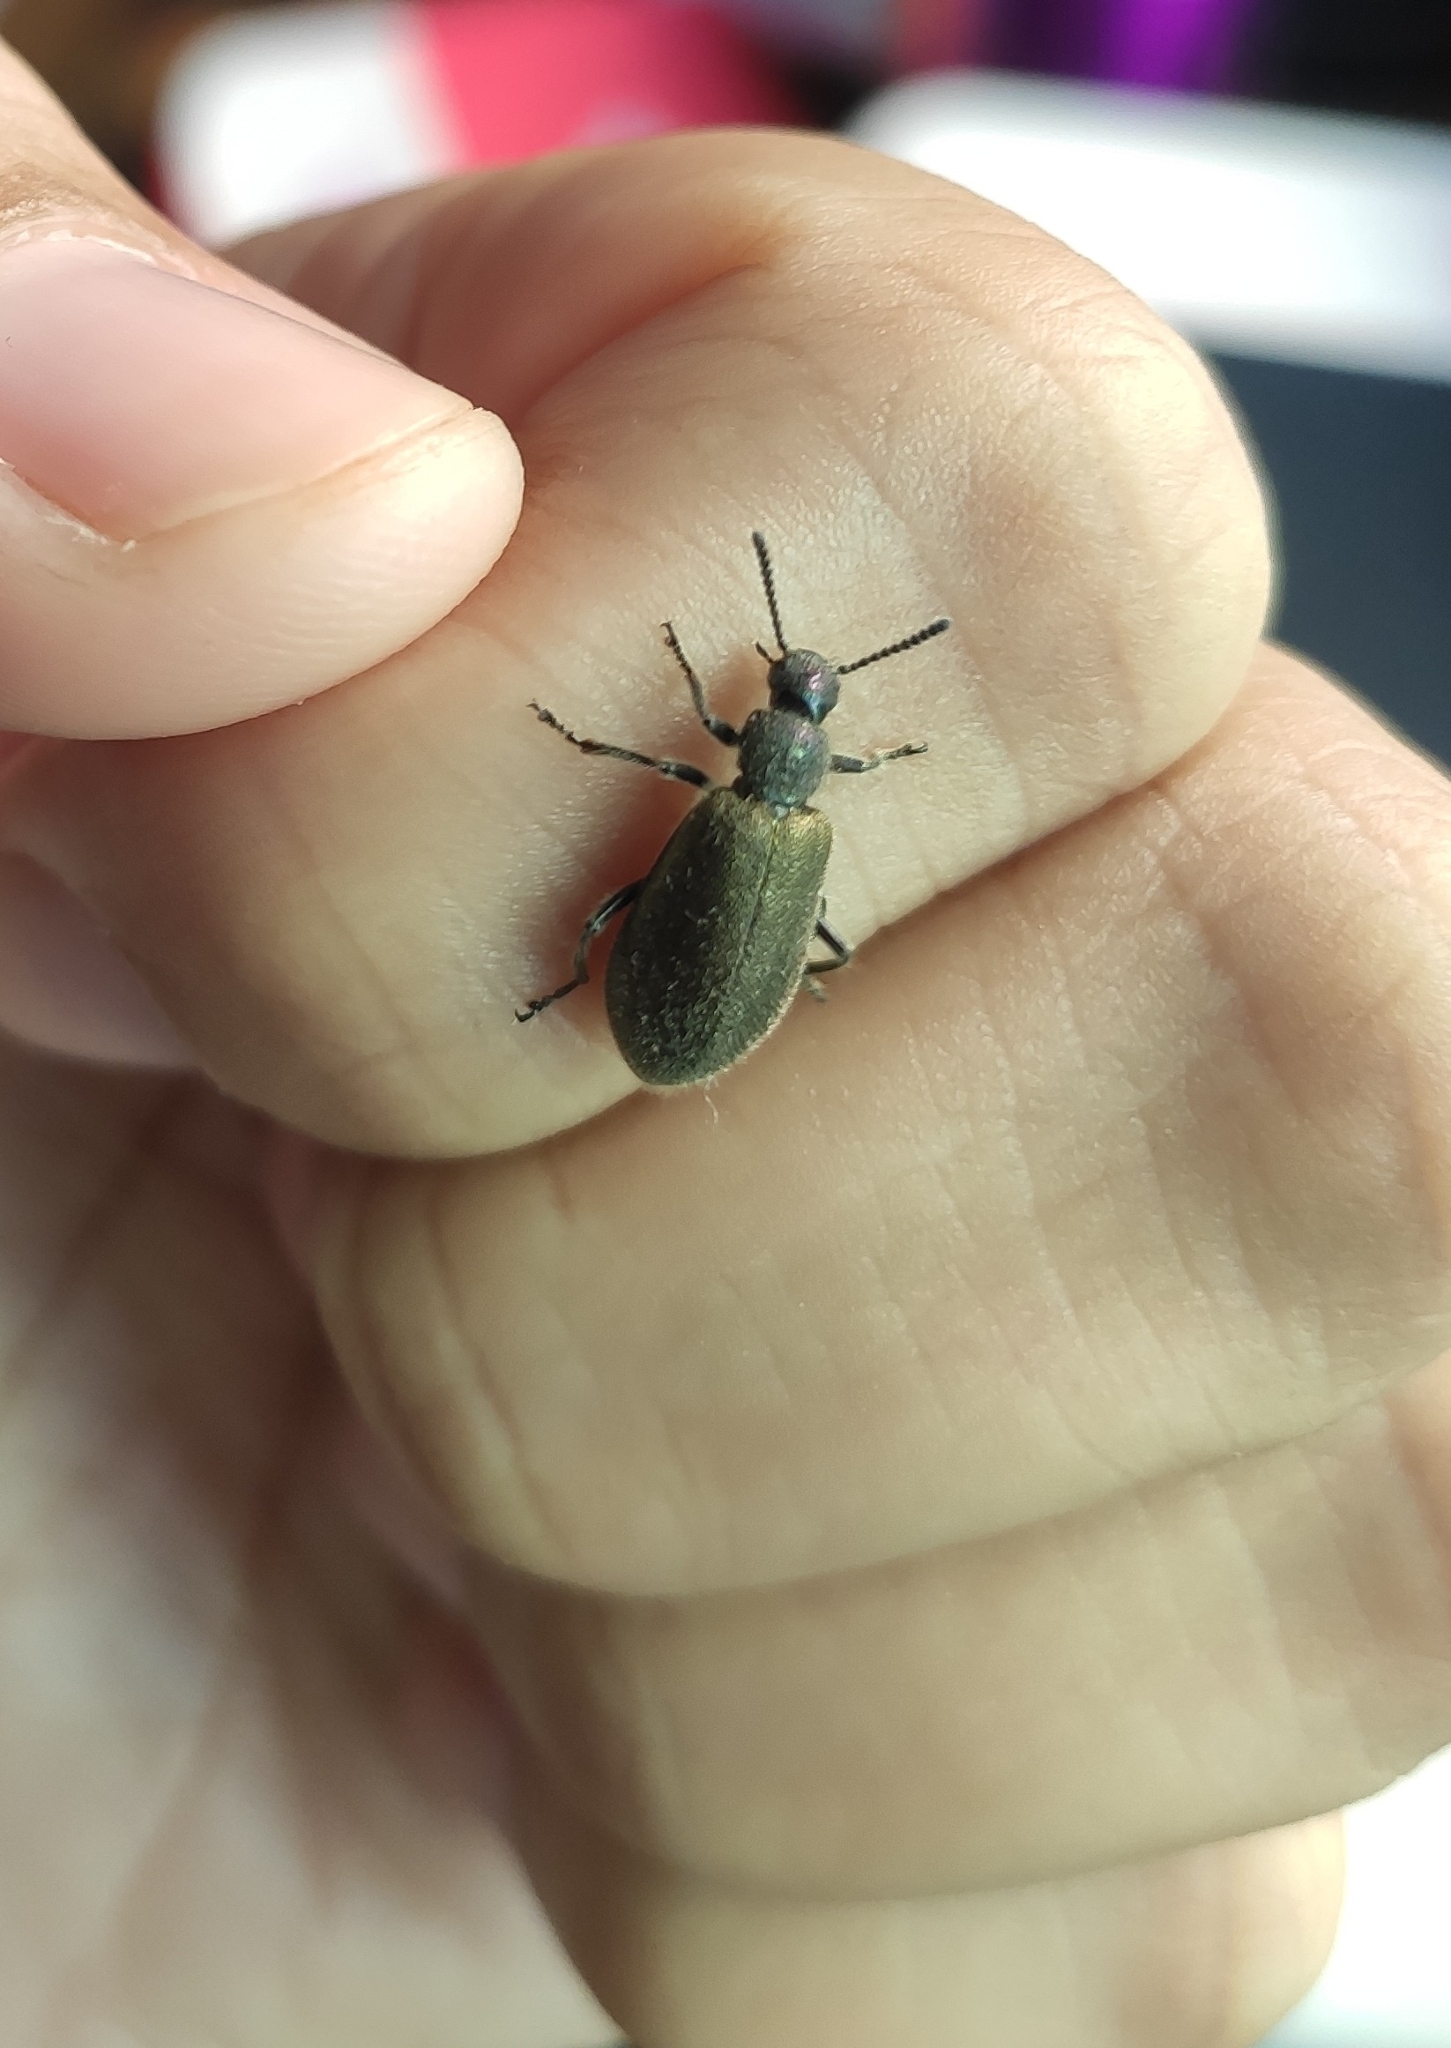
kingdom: Animalia
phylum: Arthropoda
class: Insecta
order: Coleoptera
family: Tenebrionidae
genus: Lagria
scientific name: Lagria villosa
